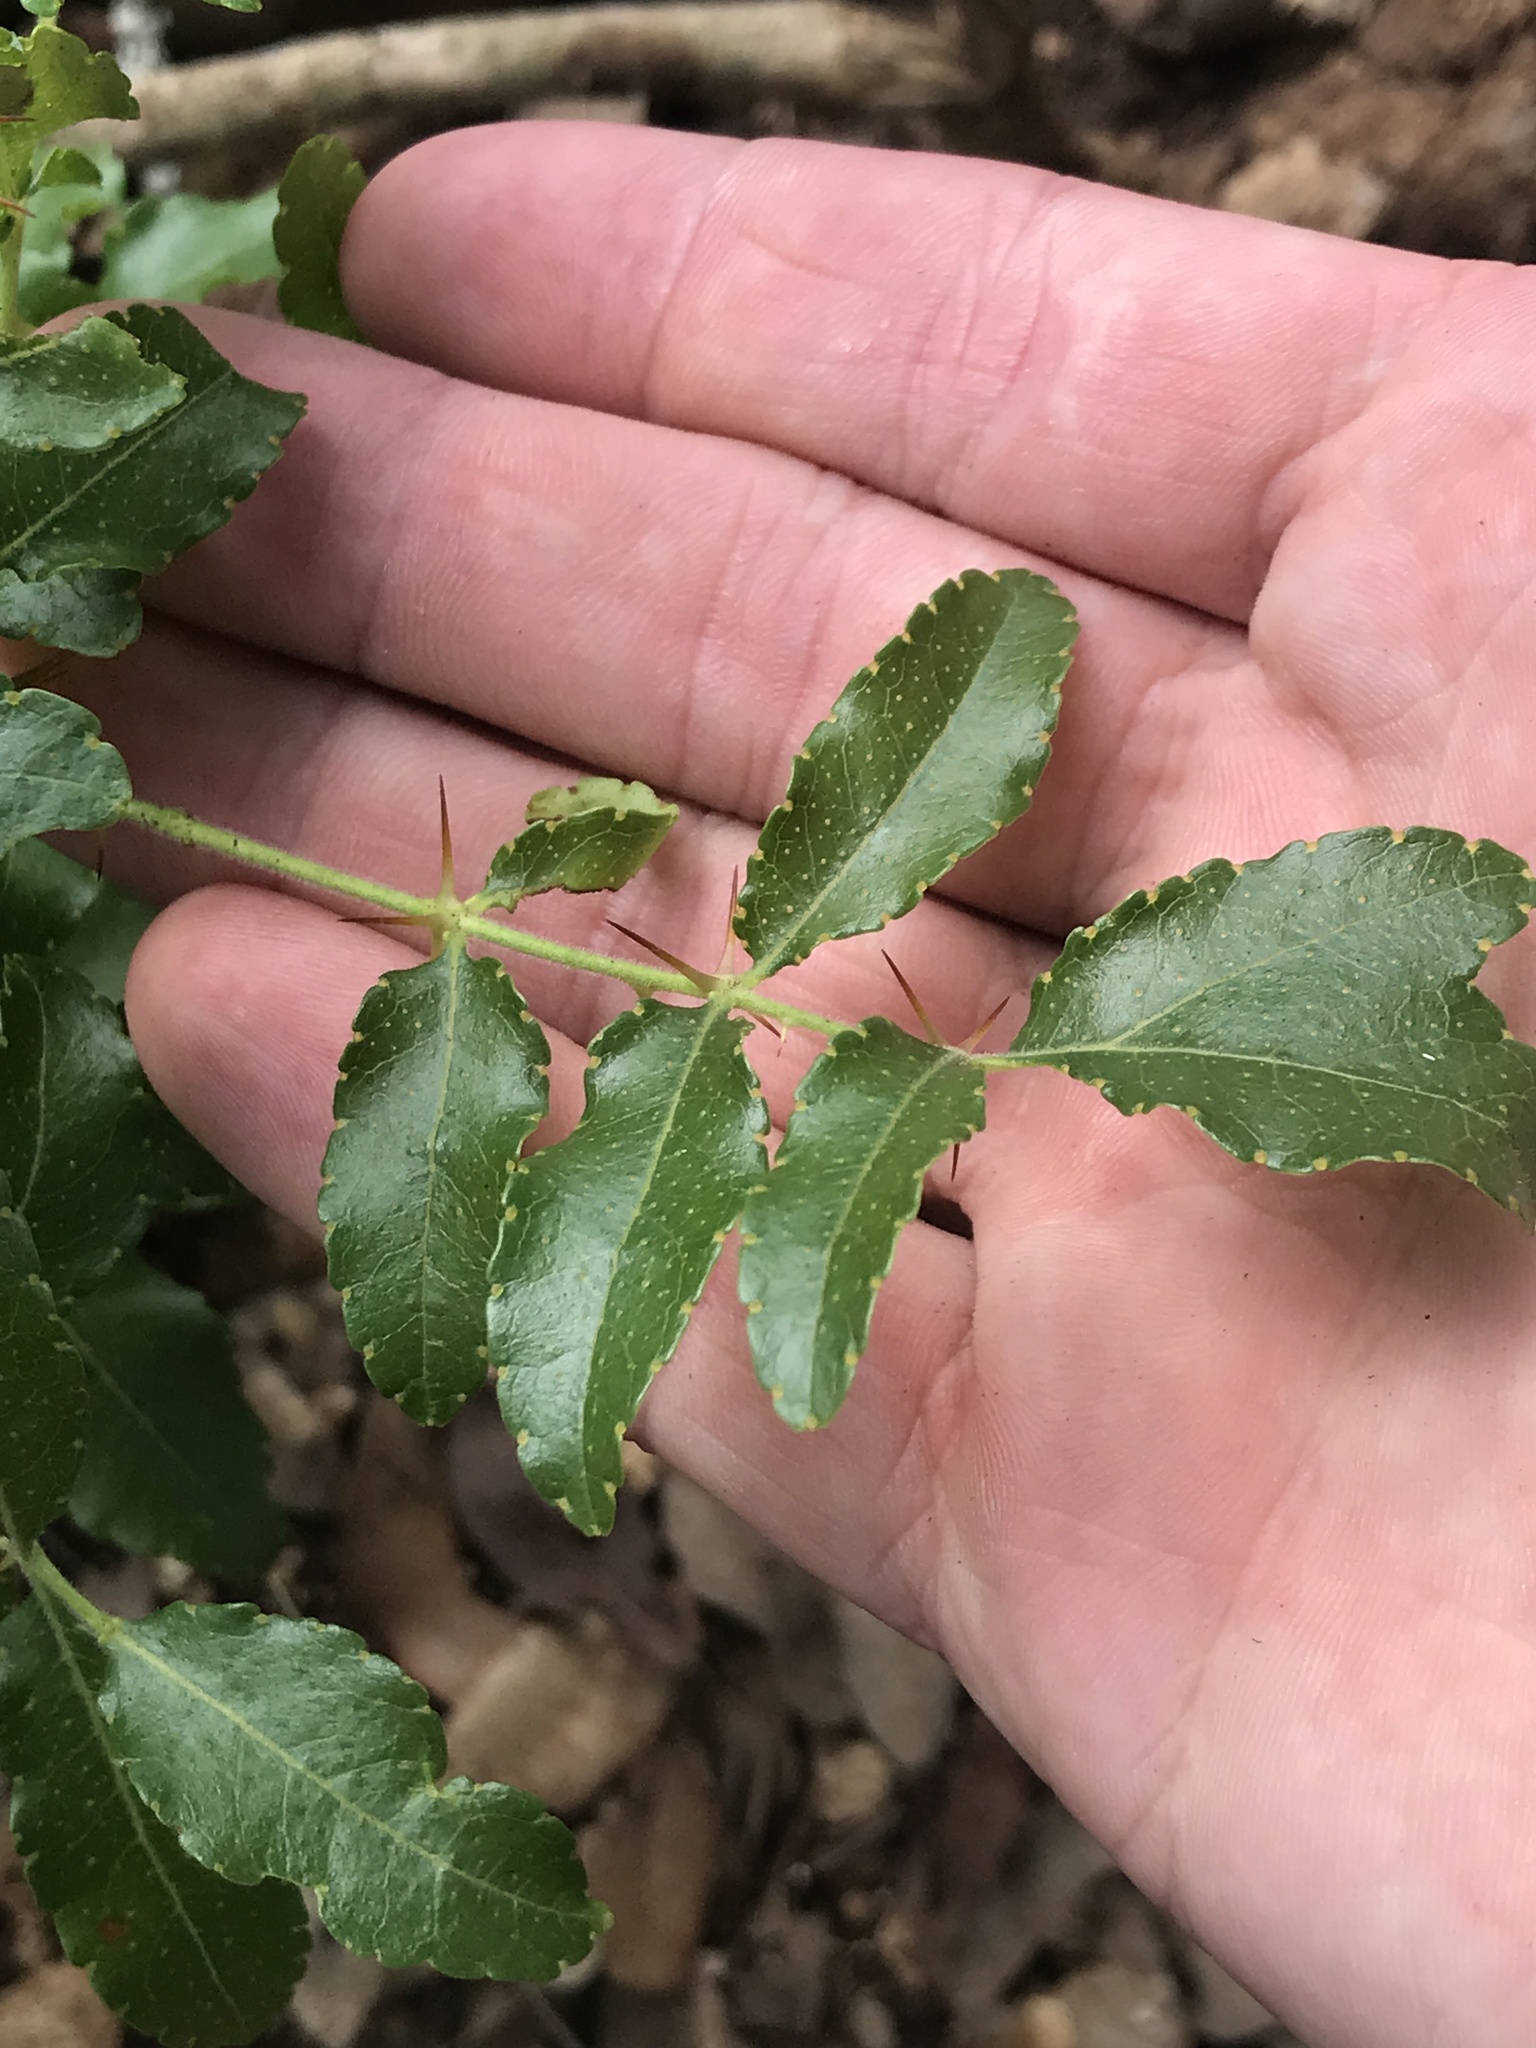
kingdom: Plantae
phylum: Tracheophyta
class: Magnoliopsida
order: Sapindales
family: Rutaceae
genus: Zanthoxylum
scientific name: Zanthoxylum clava-herculis
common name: Hercules'-club
